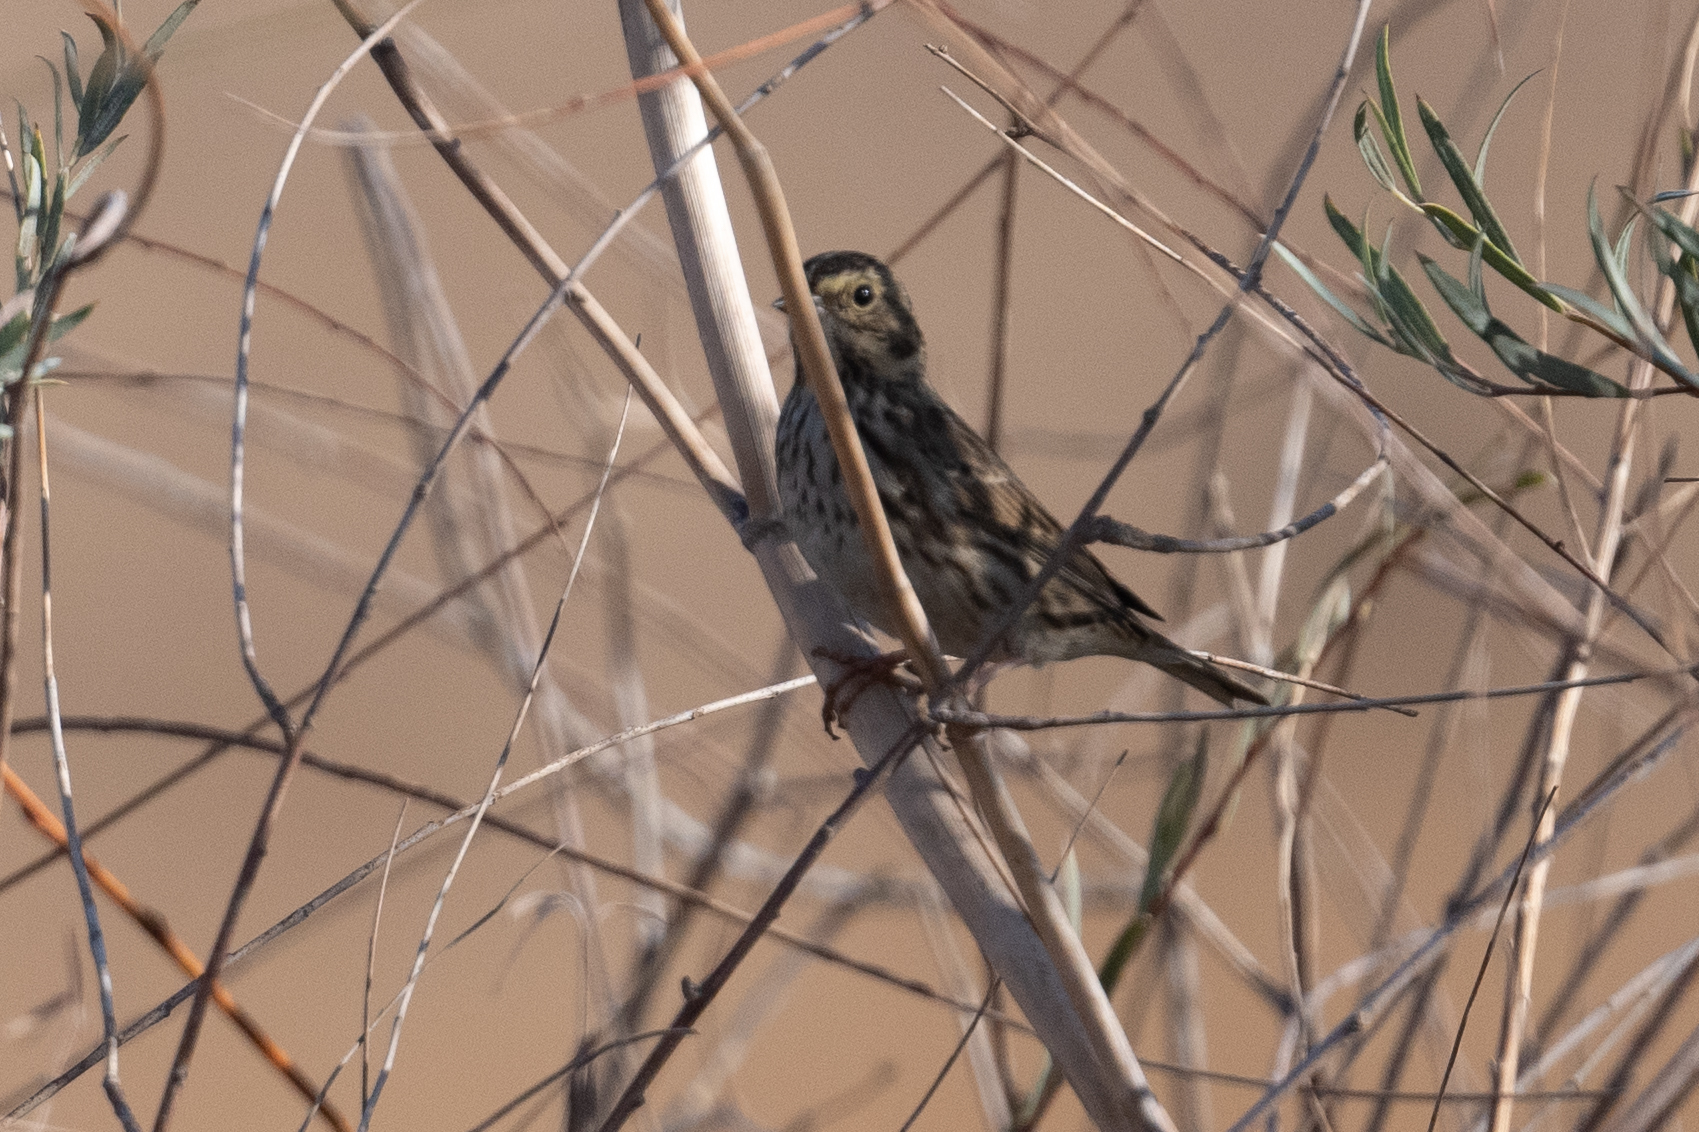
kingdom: Animalia
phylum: Chordata
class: Aves
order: Passeriformes
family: Passerellidae
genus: Passerculus
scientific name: Passerculus sandwichensis
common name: Savannah sparrow
